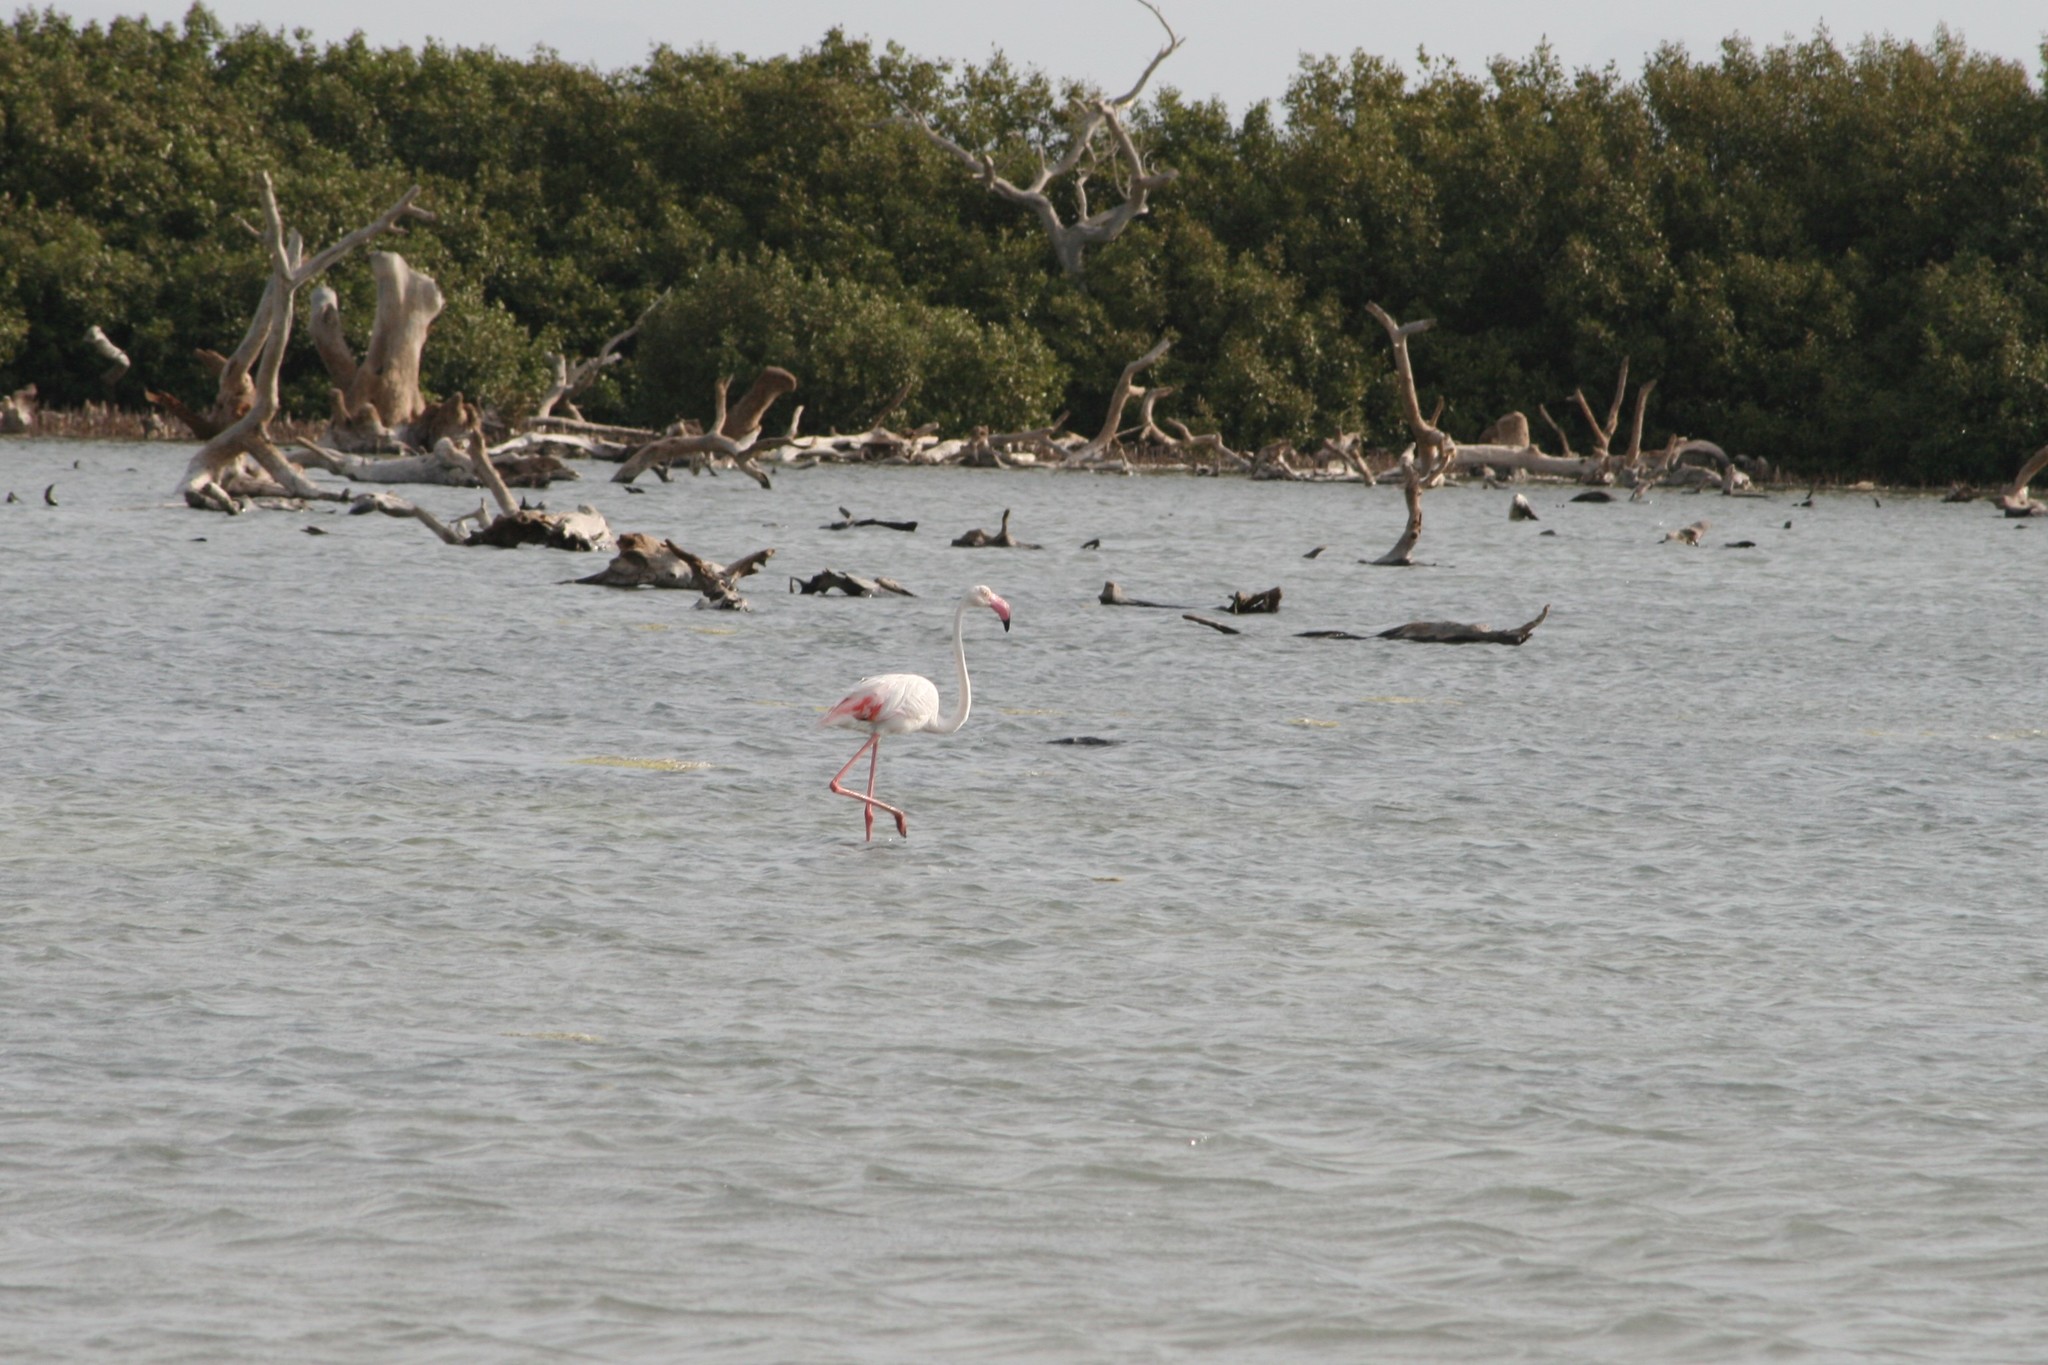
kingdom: Animalia
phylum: Chordata
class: Aves
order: Phoenicopteriformes
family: Phoenicopteridae
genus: Phoenicopterus
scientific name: Phoenicopterus roseus
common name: Greater flamingo
